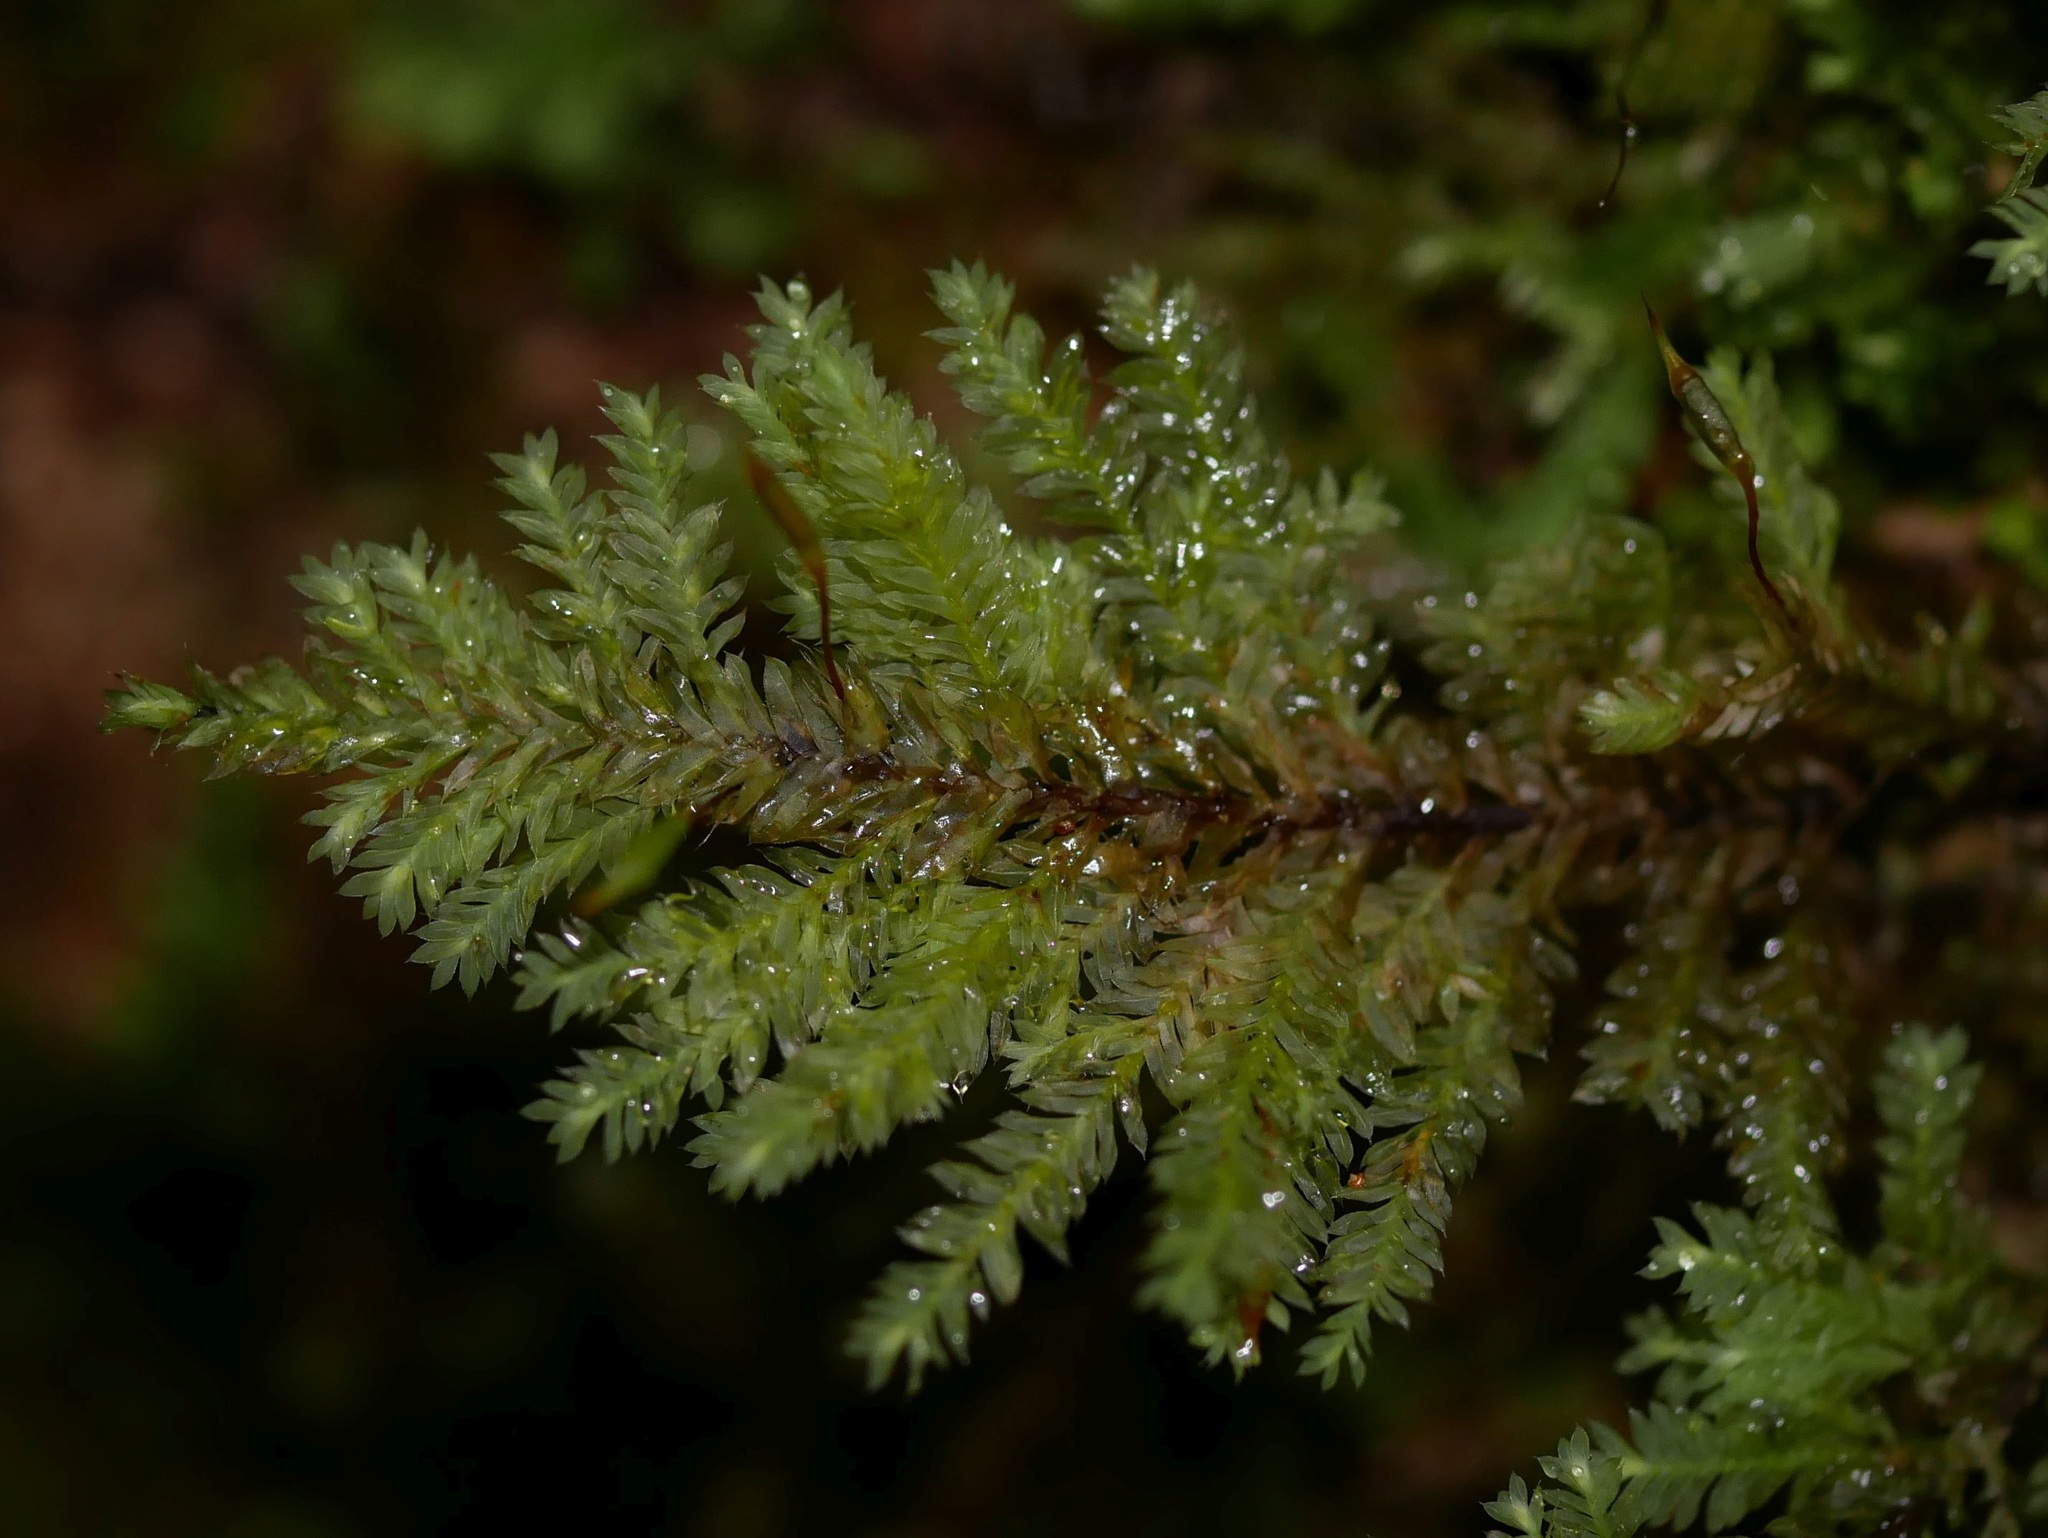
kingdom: Plantae
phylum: Bryophyta
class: Bryopsida
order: Hypopterygiales
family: Hypopterygiaceae
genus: Lopidium
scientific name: Lopidium concinnum
